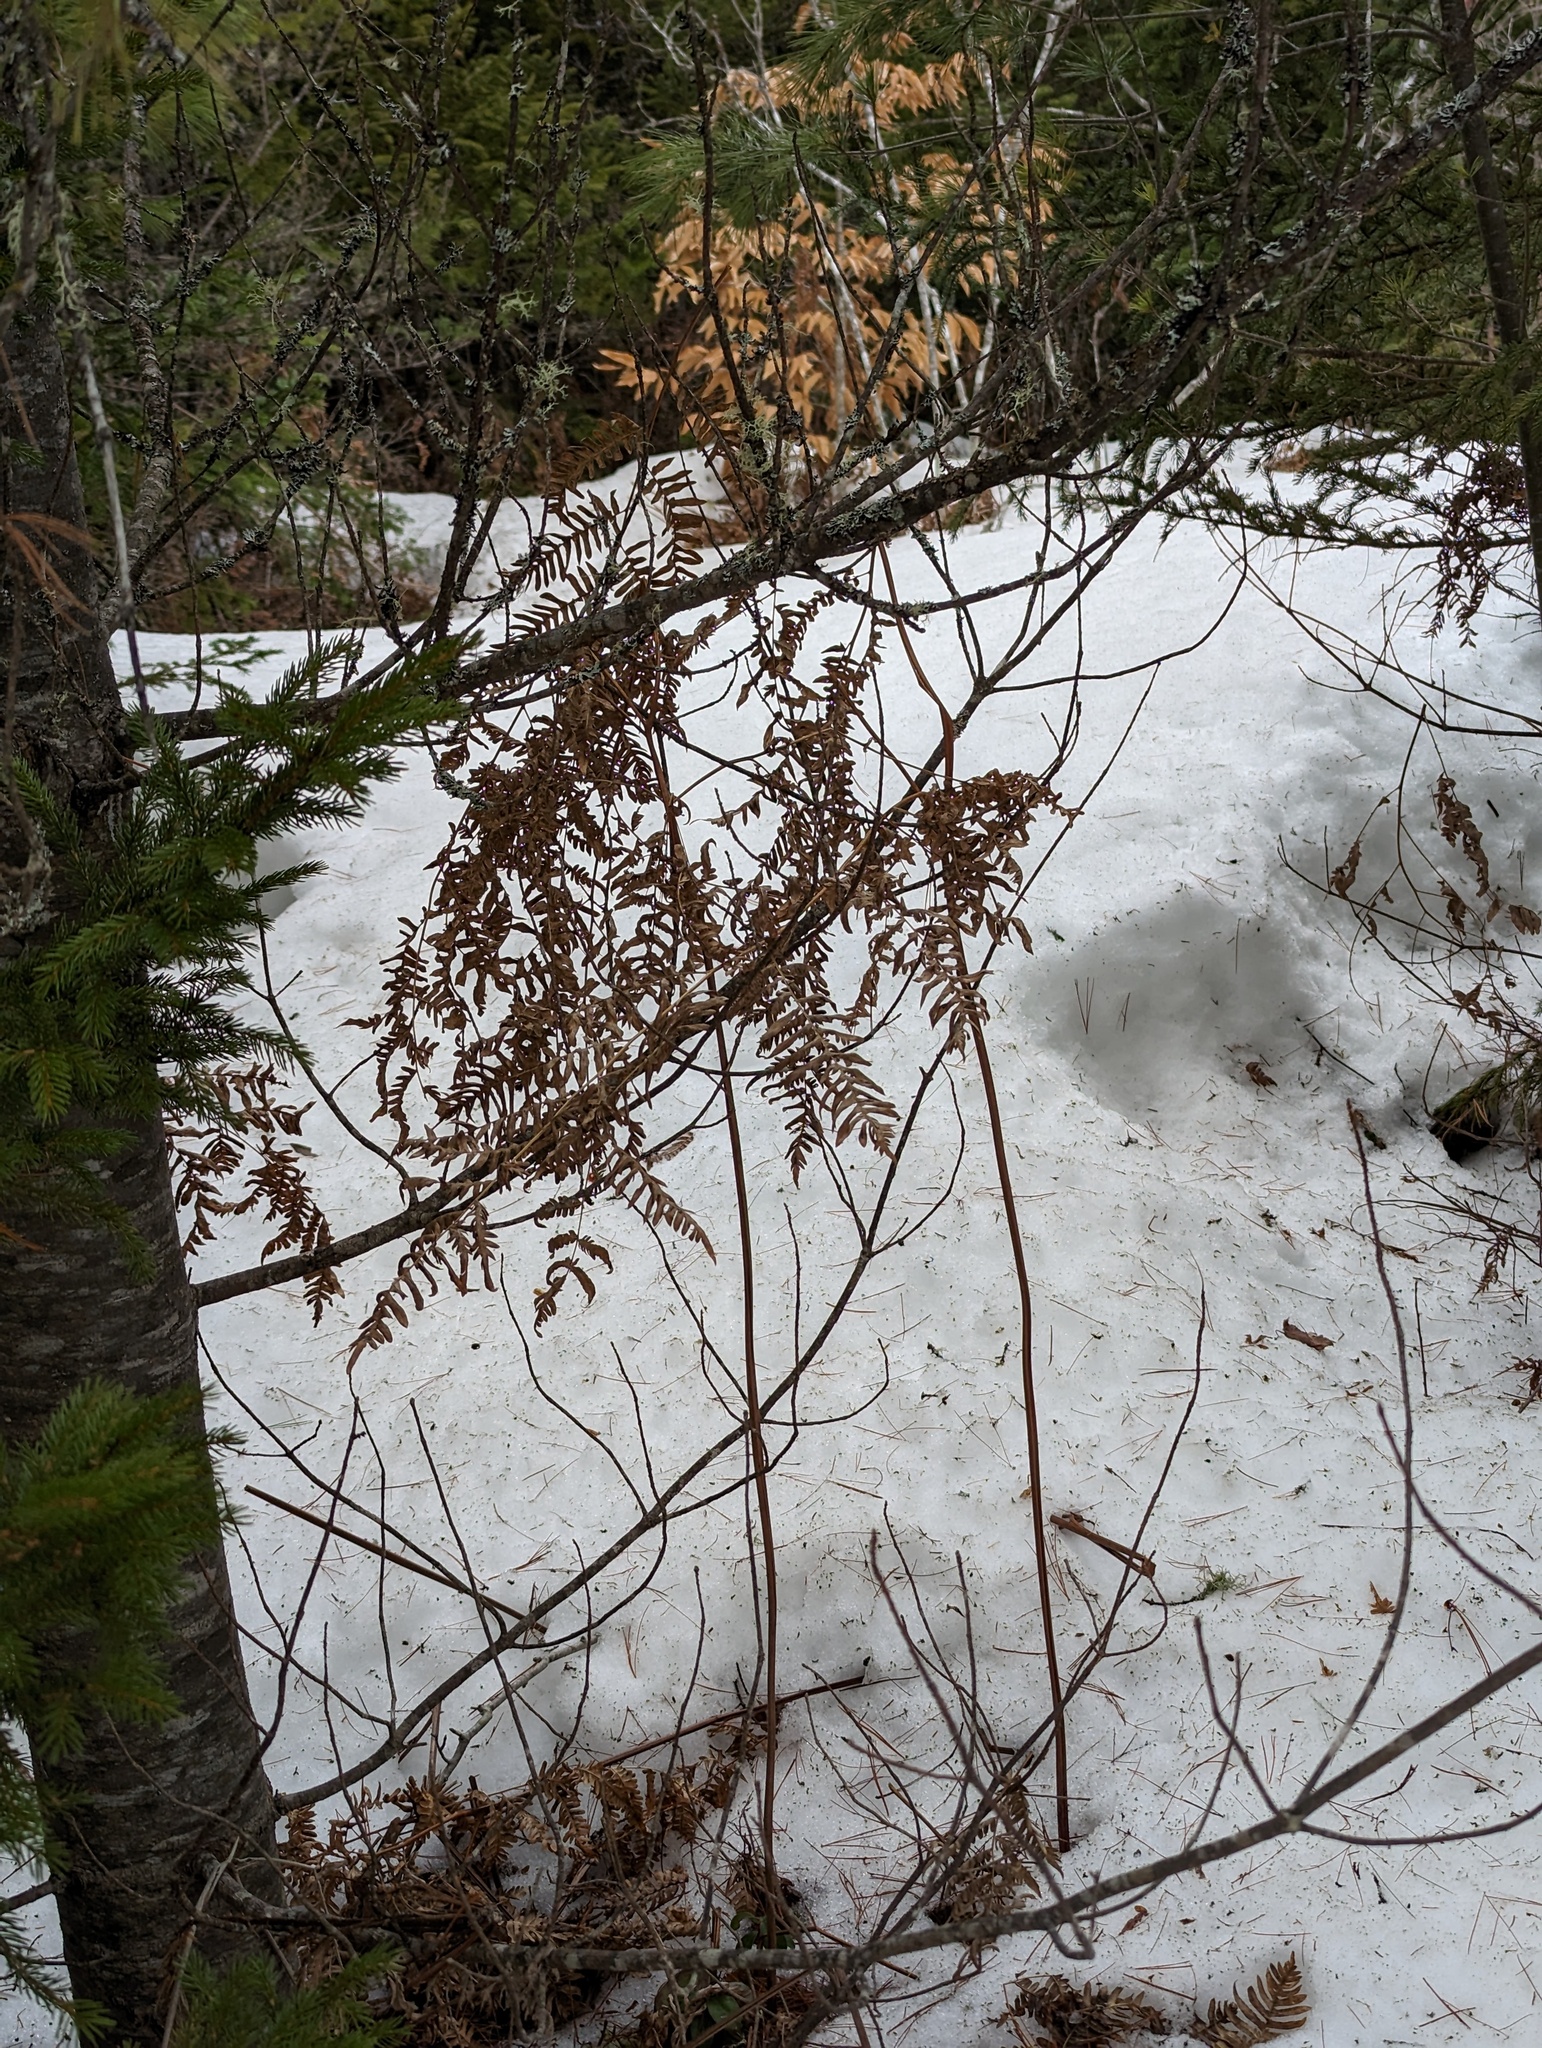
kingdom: Plantae
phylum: Tracheophyta
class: Polypodiopsida
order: Polypodiales
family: Dennstaedtiaceae
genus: Pteridium
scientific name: Pteridium aquilinum
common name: Bracken
